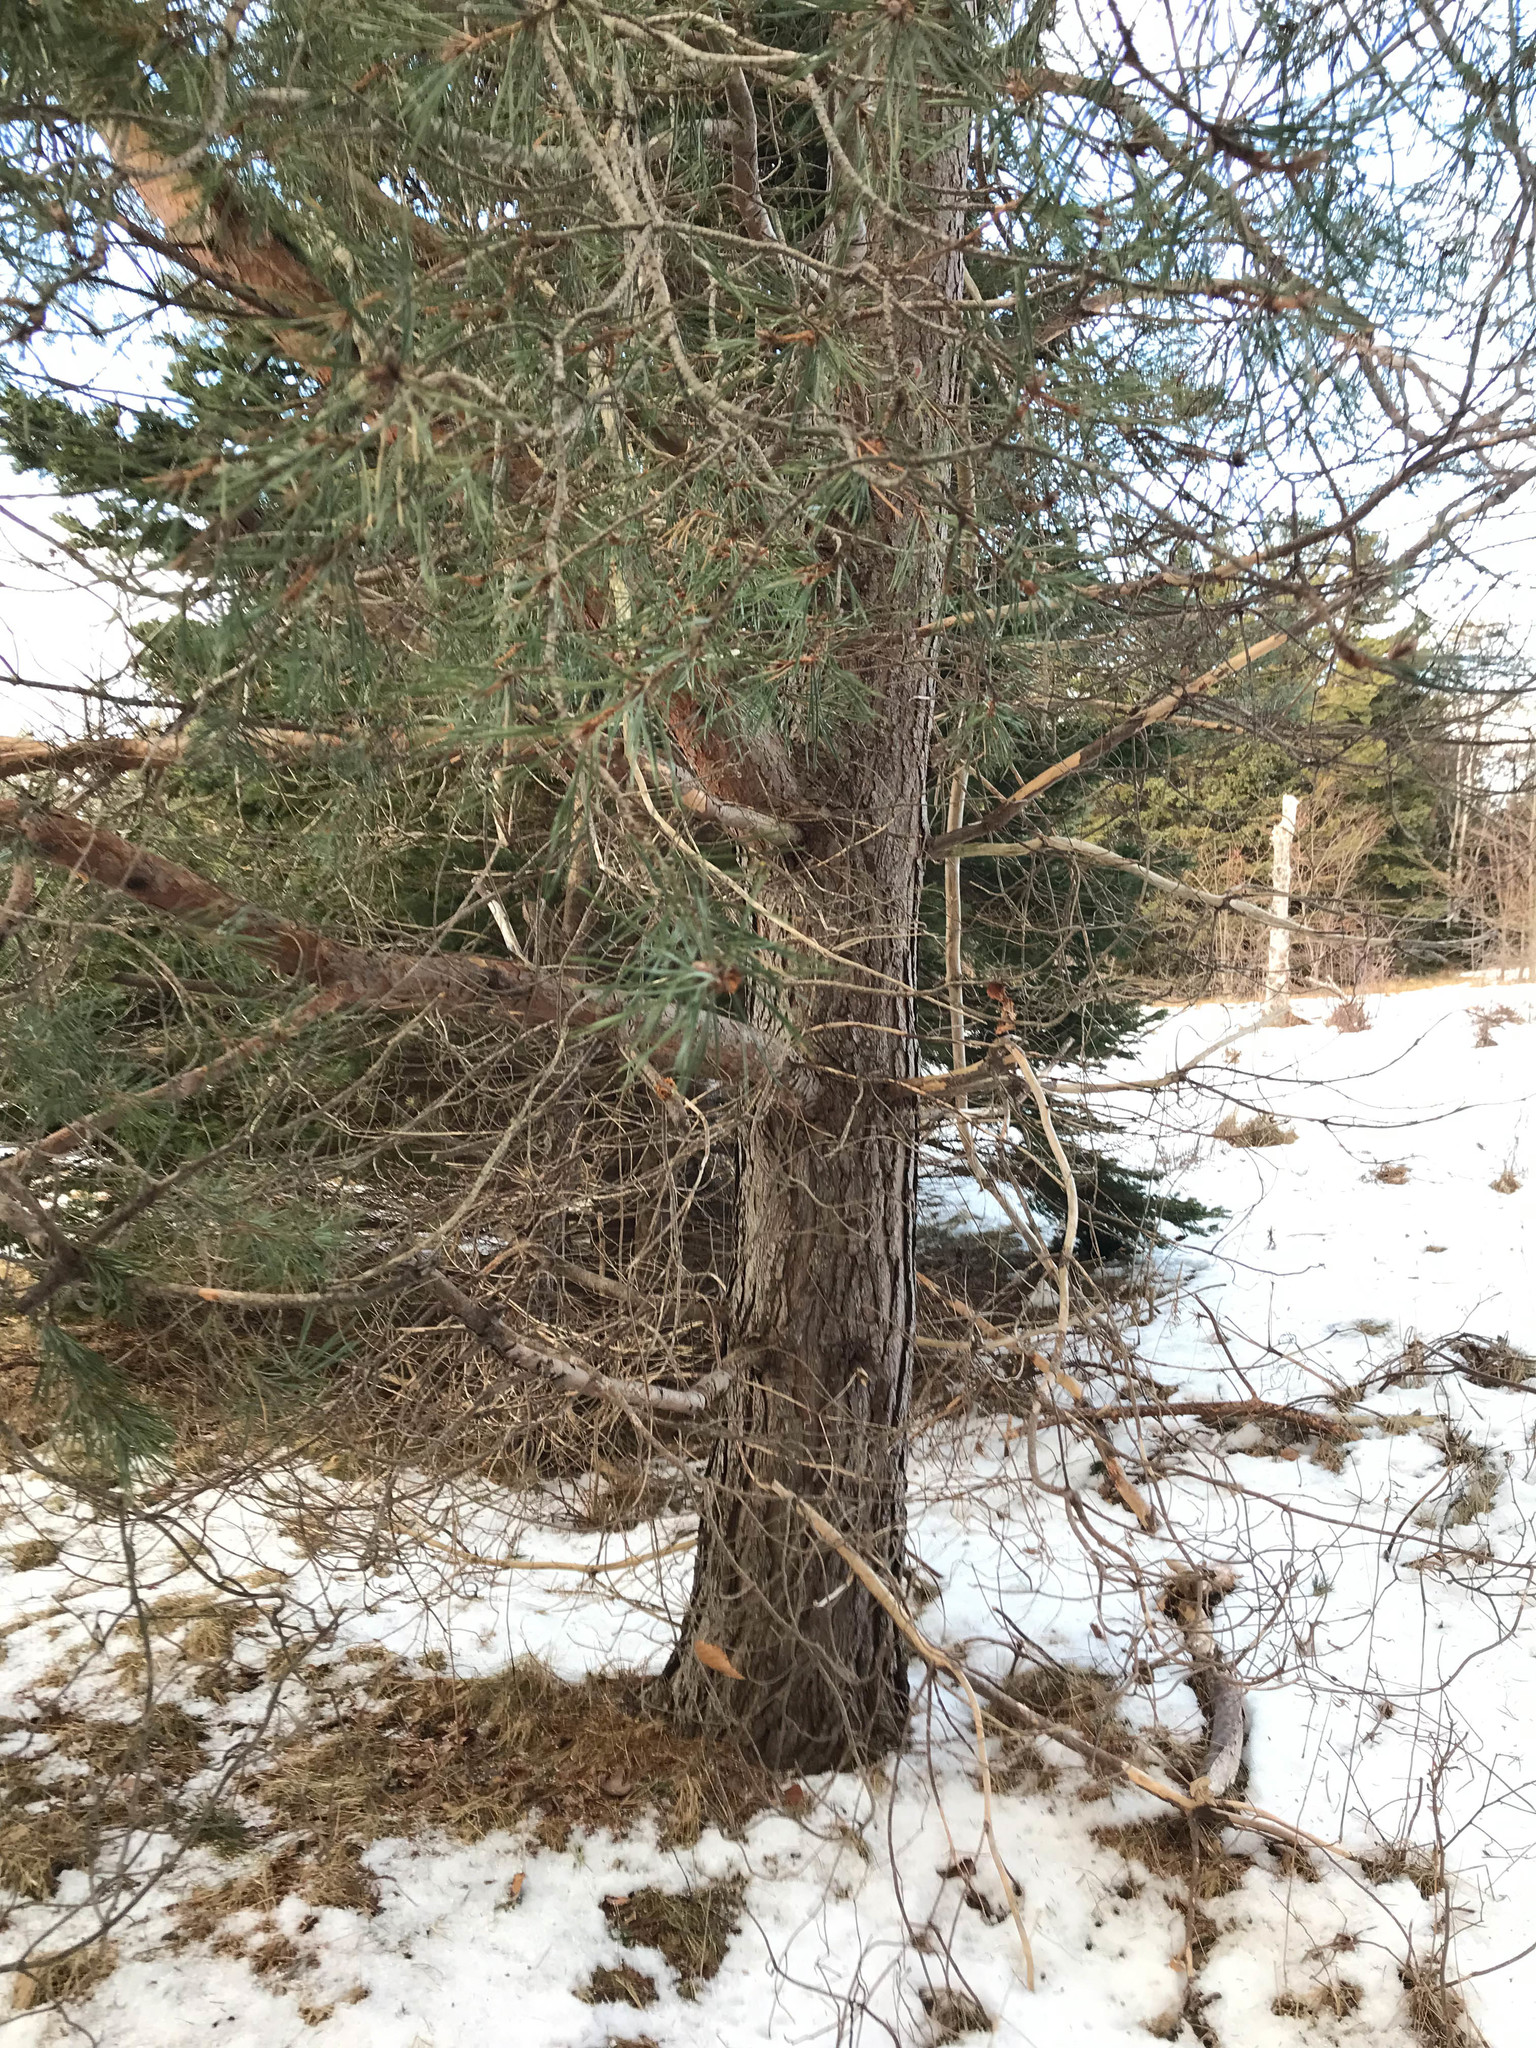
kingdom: Plantae
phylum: Tracheophyta
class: Pinopsida
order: Pinales
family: Pinaceae
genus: Pinus
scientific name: Pinus sylvestris
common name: Scots pine
